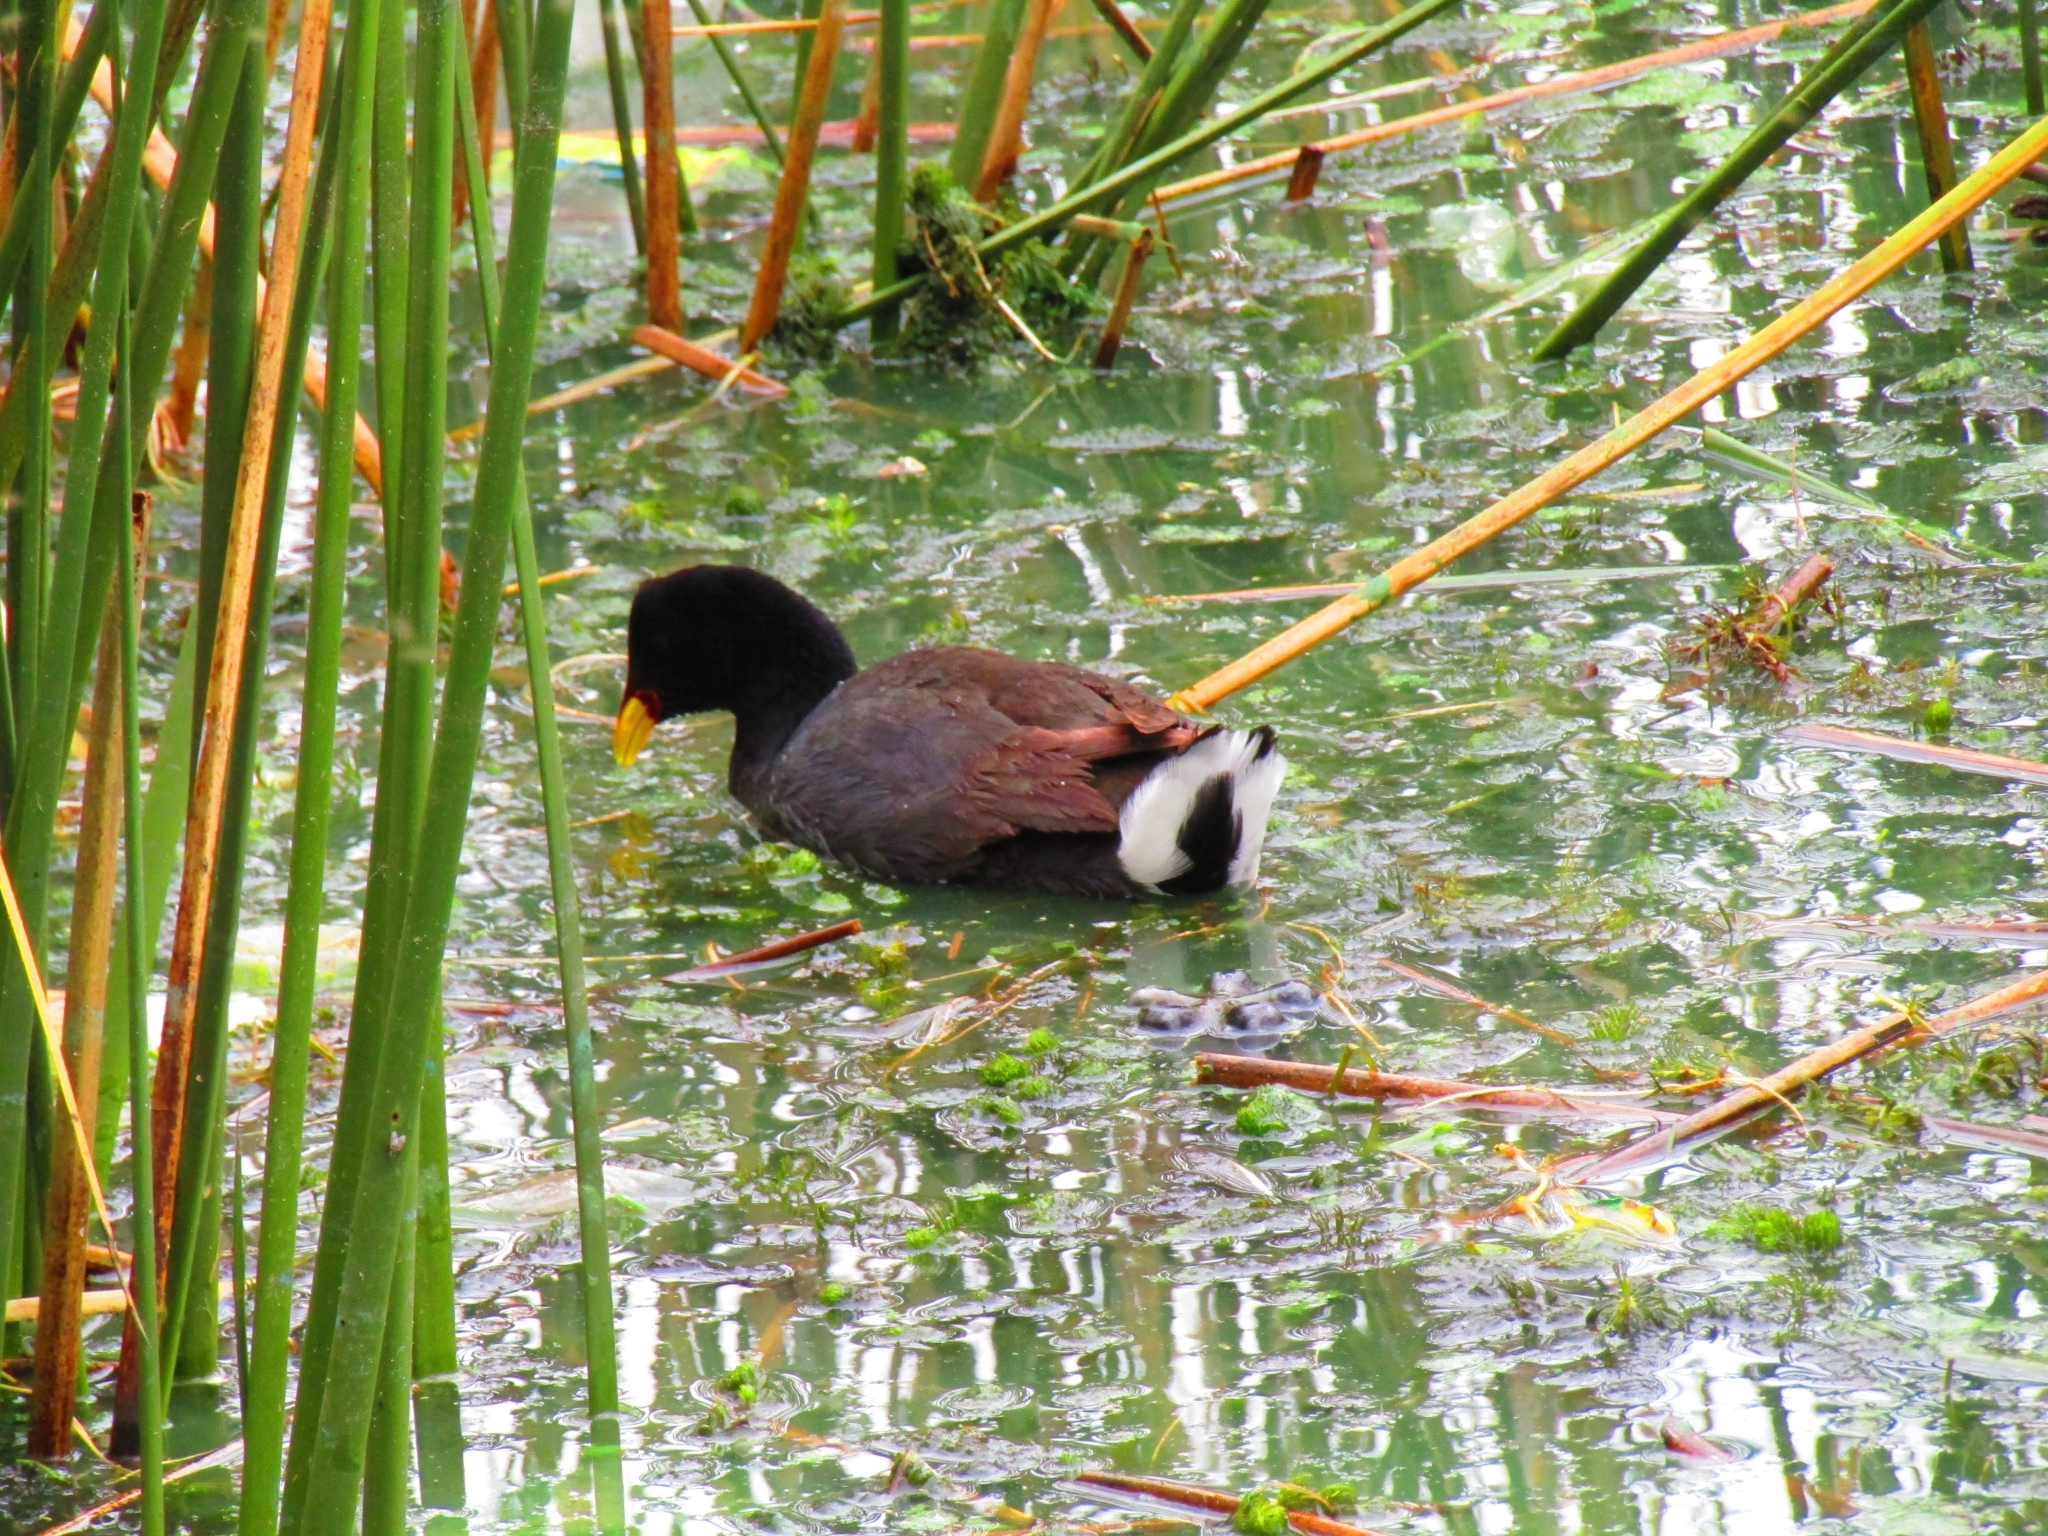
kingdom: Animalia
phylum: Chordata
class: Aves
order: Gruiformes
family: Rallidae
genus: Fulica
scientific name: Fulica rufifrons
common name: Red-fronted coot
